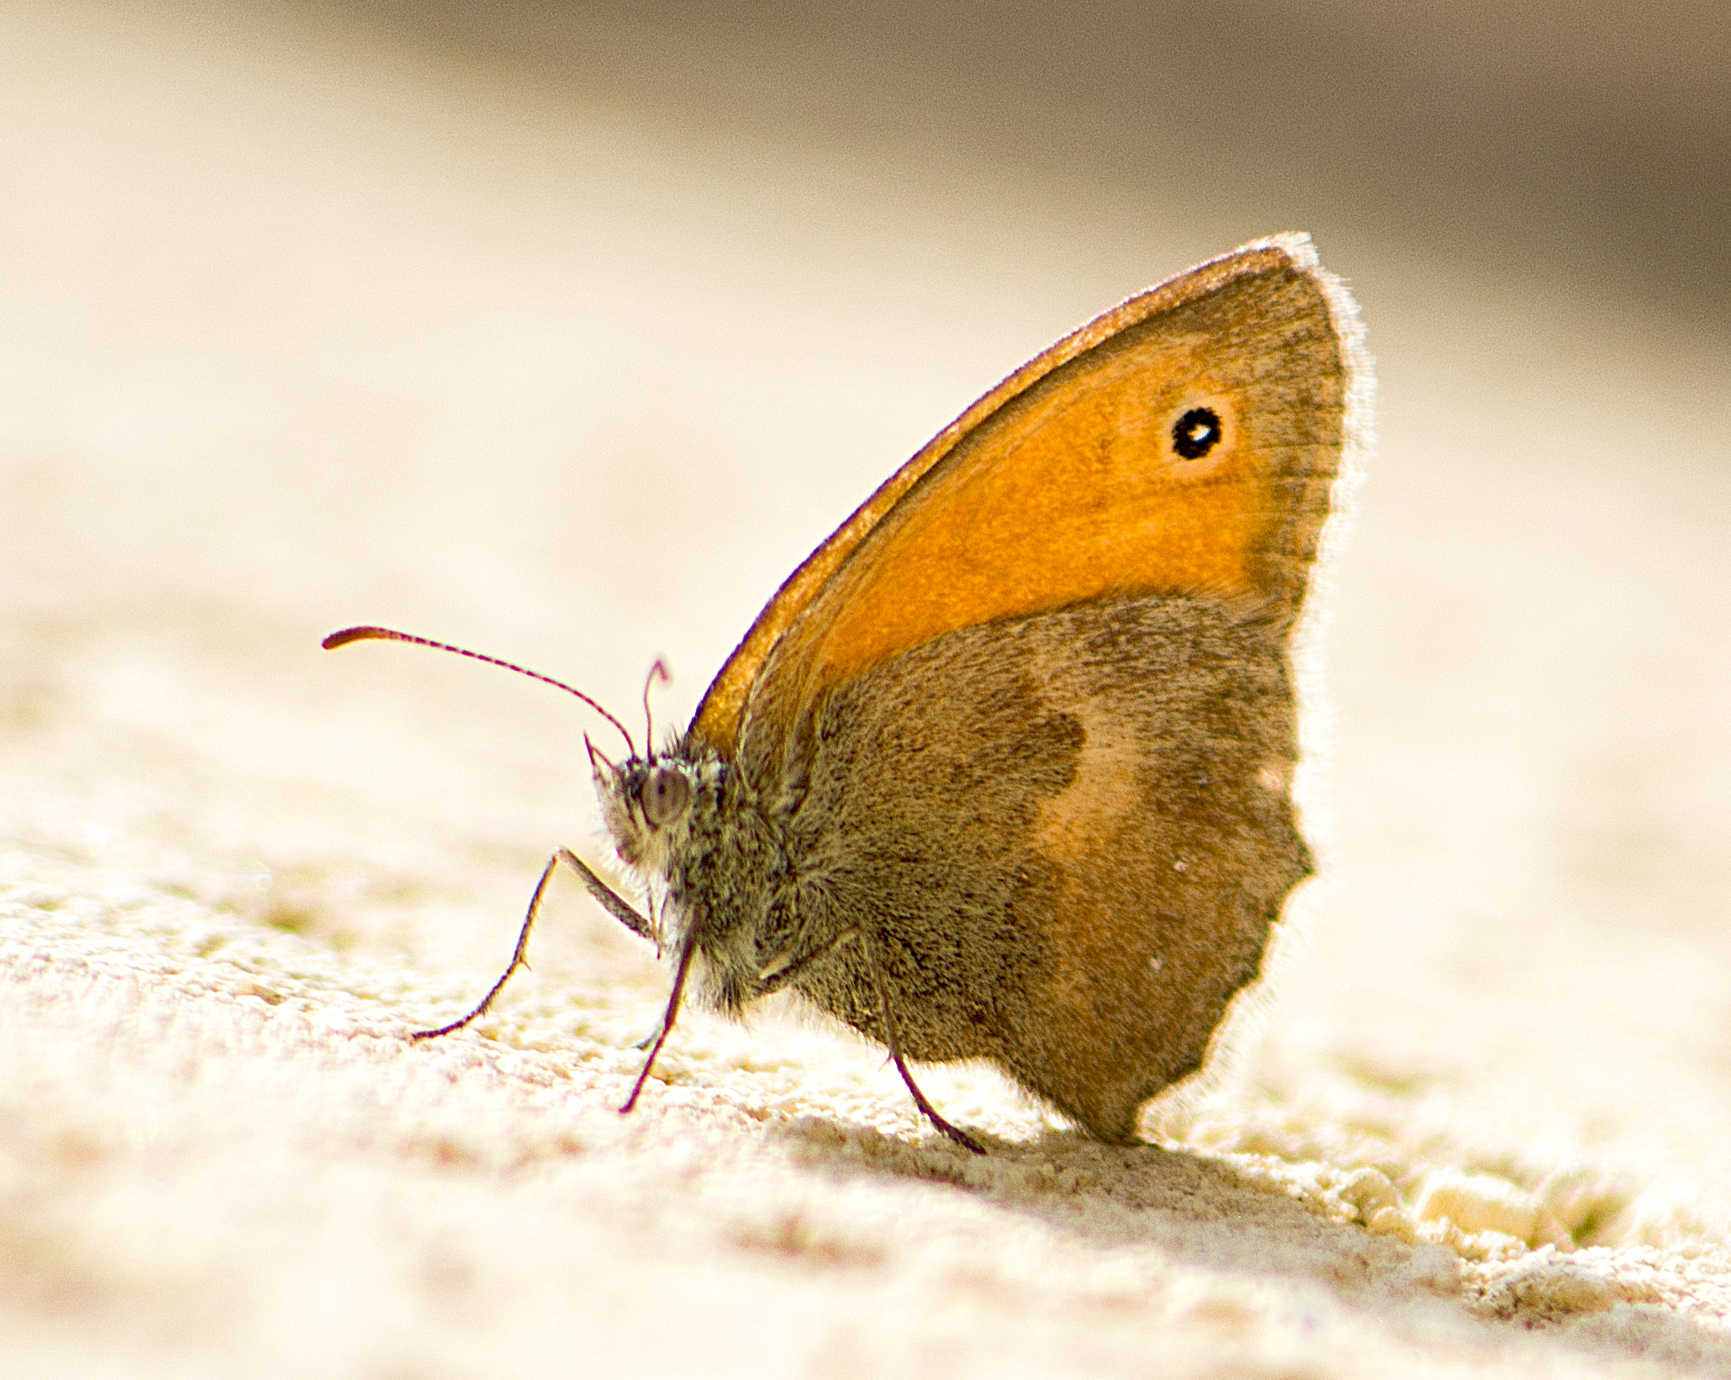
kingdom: Animalia
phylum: Arthropoda
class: Insecta
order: Lepidoptera
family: Nymphalidae
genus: Coenonympha
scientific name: Coenonympha pamphilus
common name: Small heath
